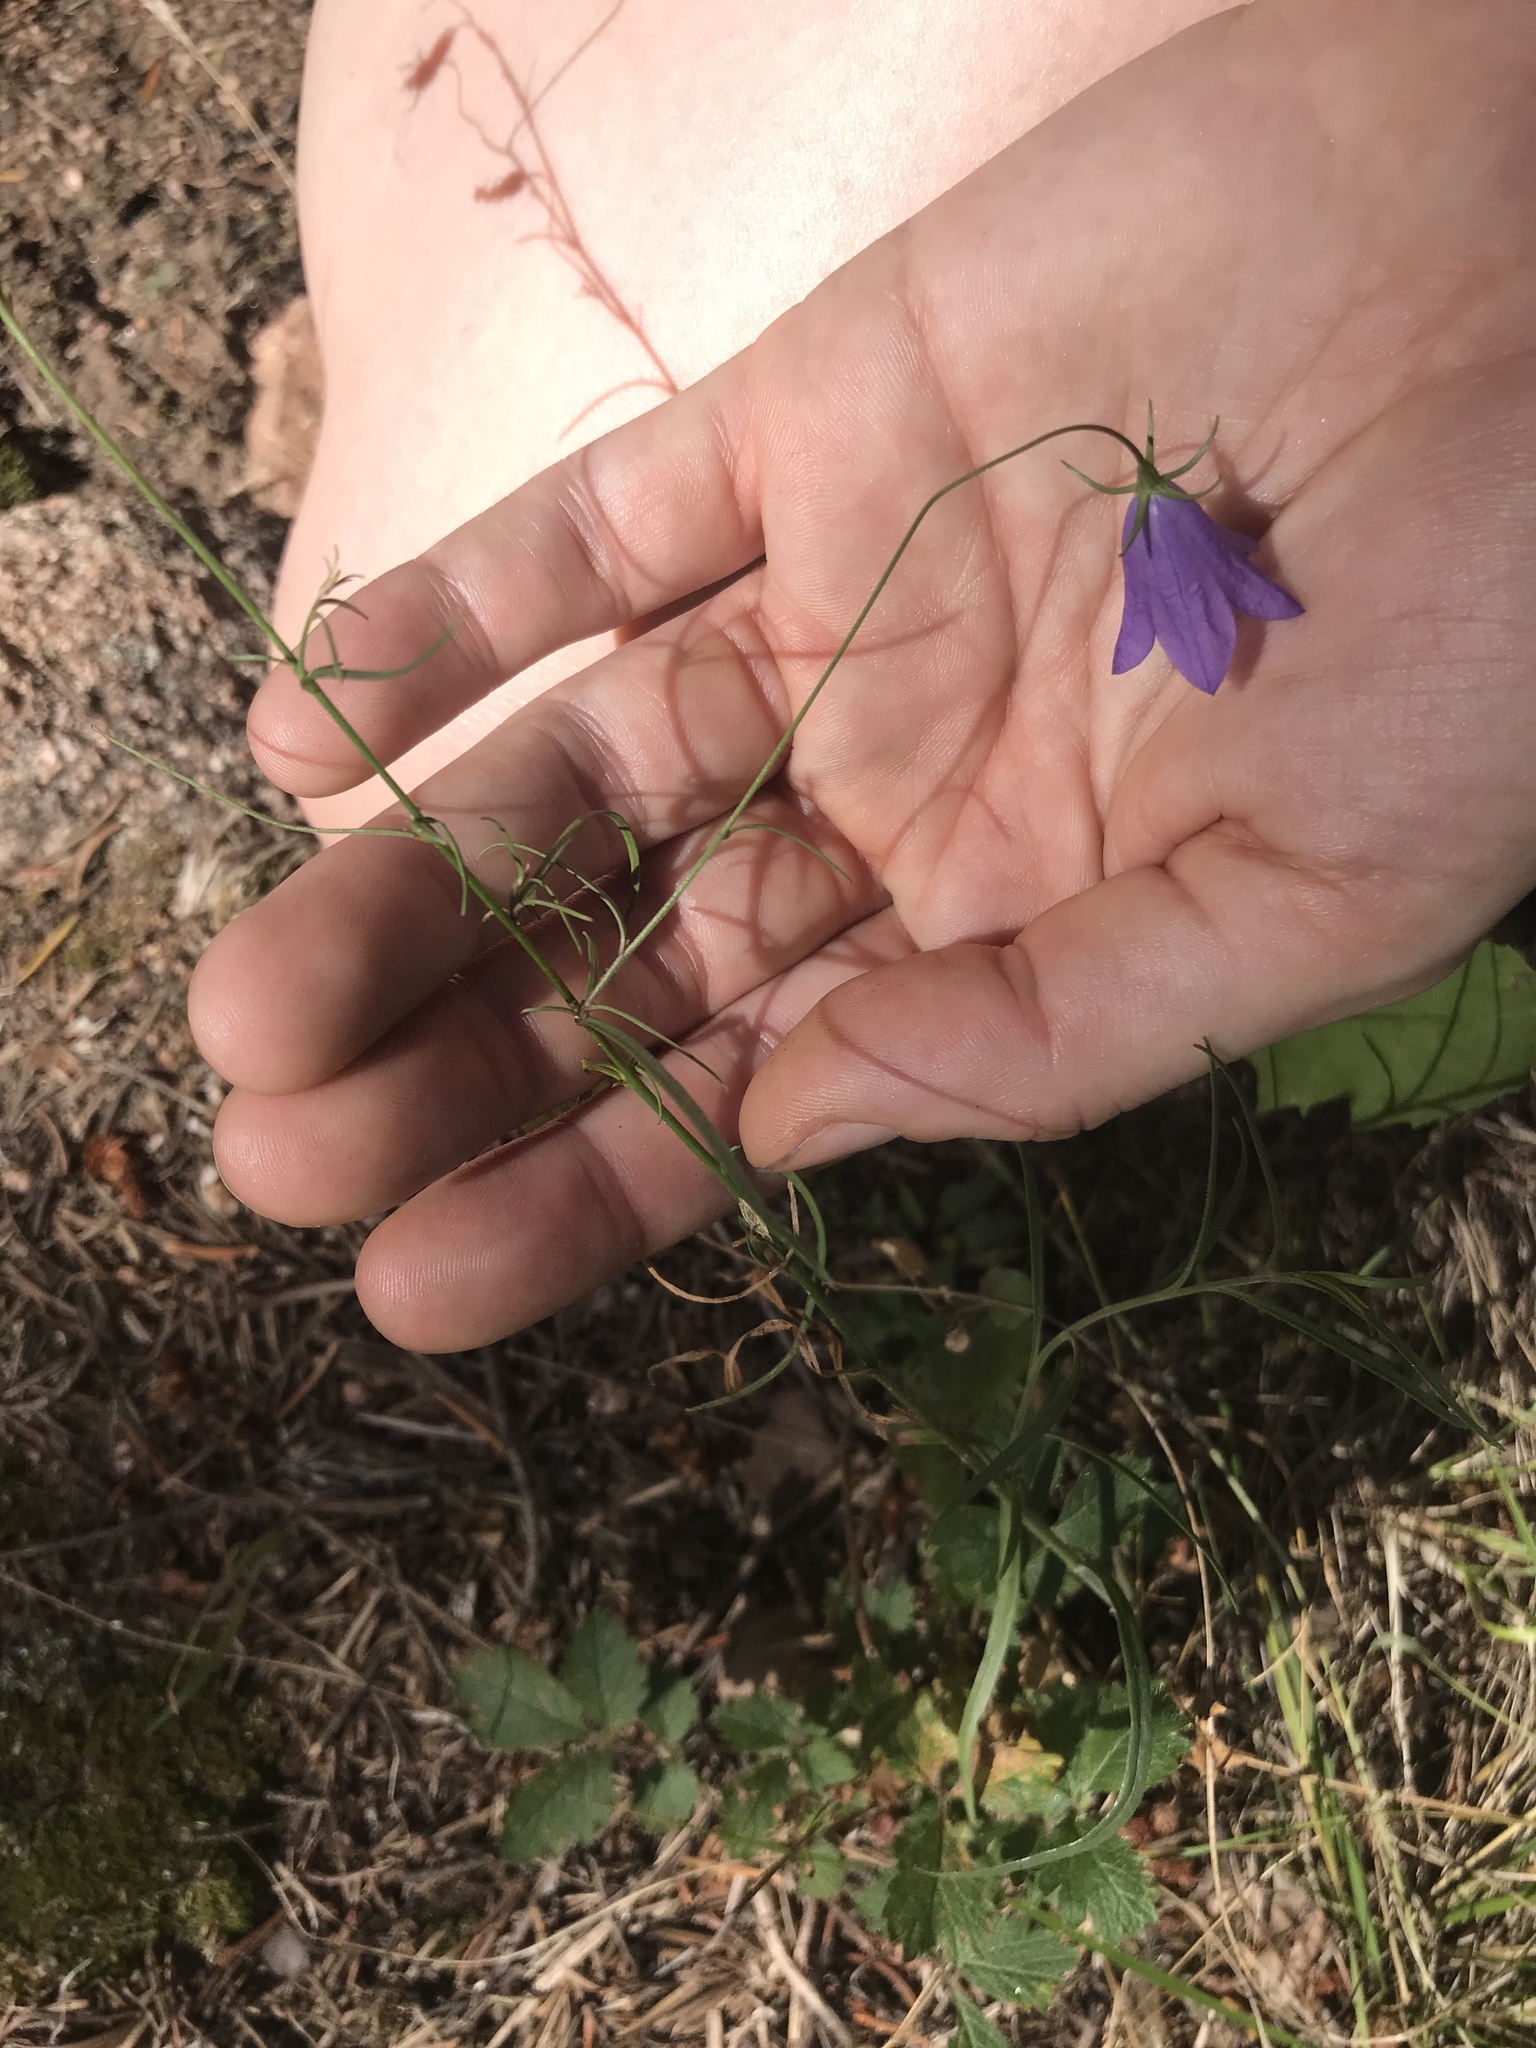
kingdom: Plantae
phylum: Tracheophyta
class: Magnoliopsida
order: Asterales
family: Campanulaceae
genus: Campanula
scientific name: Campanula petiolata
